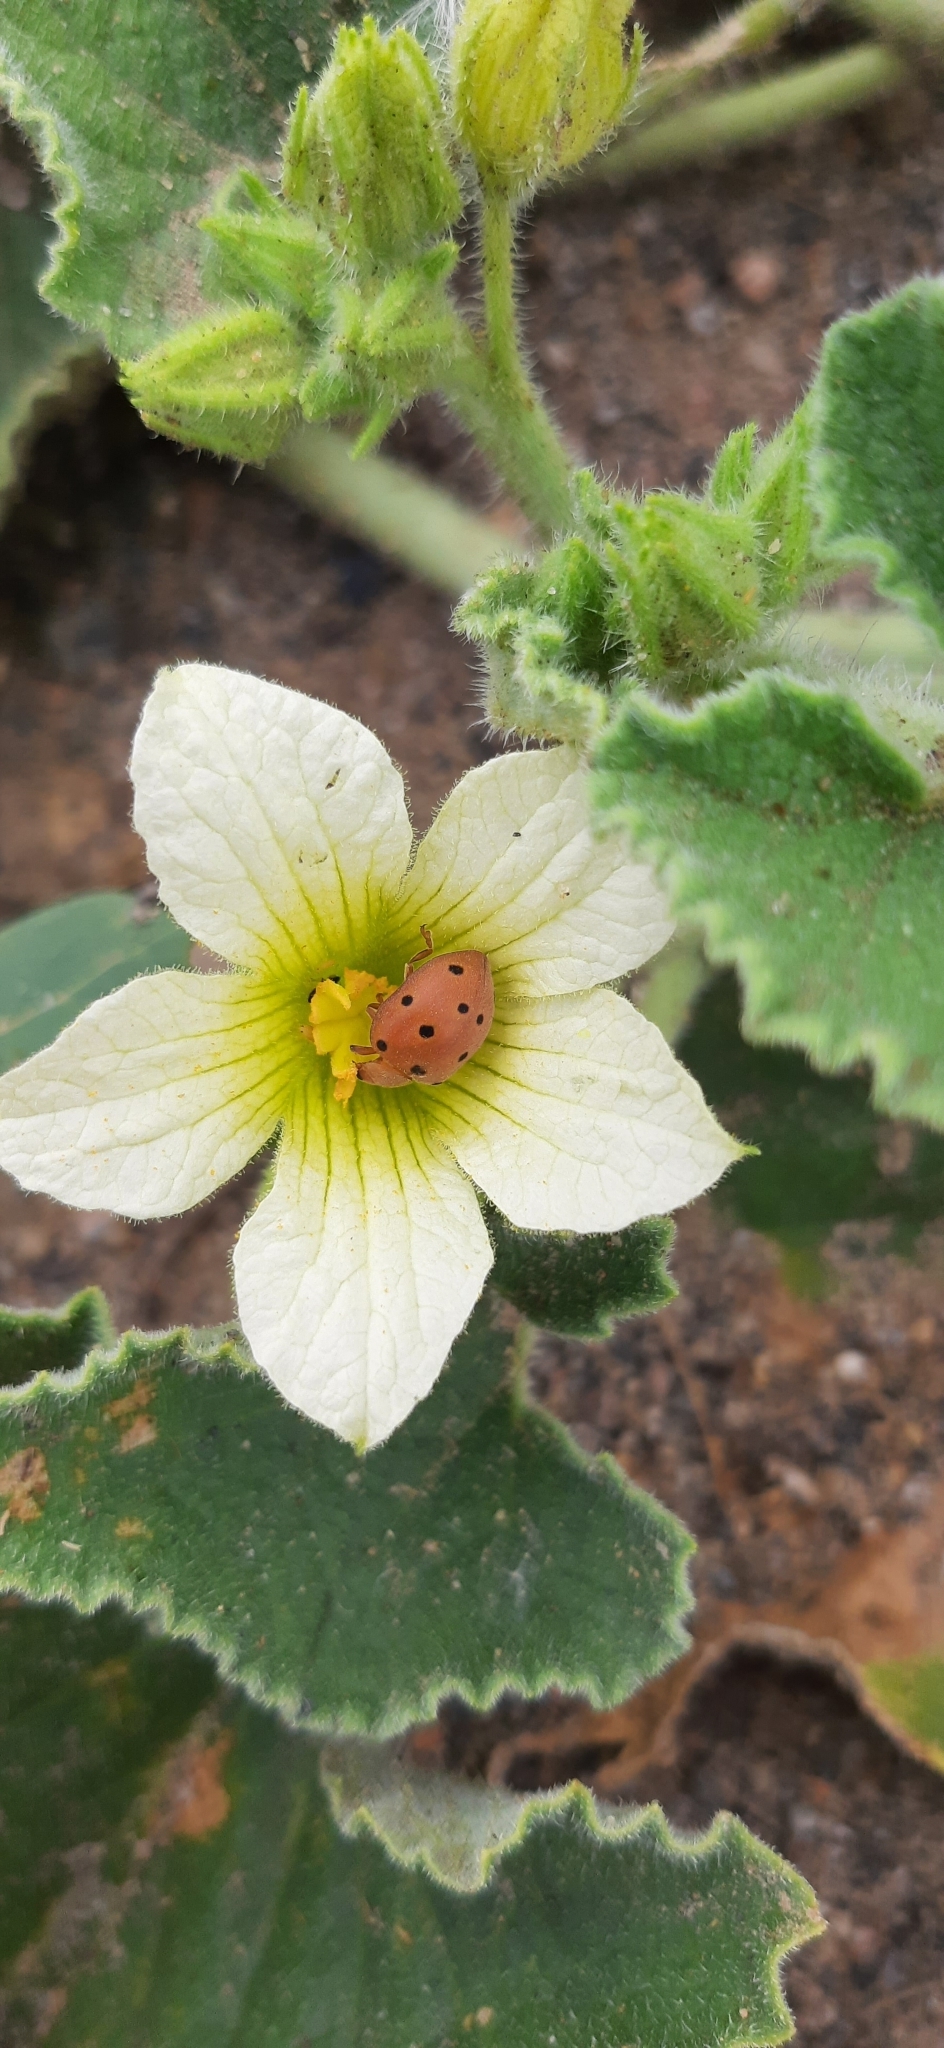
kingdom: Animalia
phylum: Arthropoda
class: Insecta
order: Coleoptera
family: Coccinellidae
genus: Henosepilachna
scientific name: Henosepilachna angusticollis
